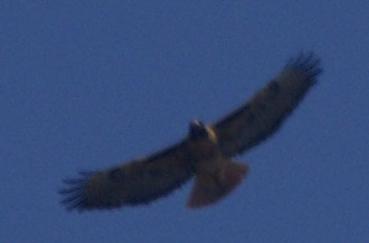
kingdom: Animalia
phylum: Chordata
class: Aves
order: Accipitriformes
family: Accipitridae
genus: Buteo
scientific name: Buteo jamaicensis
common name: Red-tailed hawk
